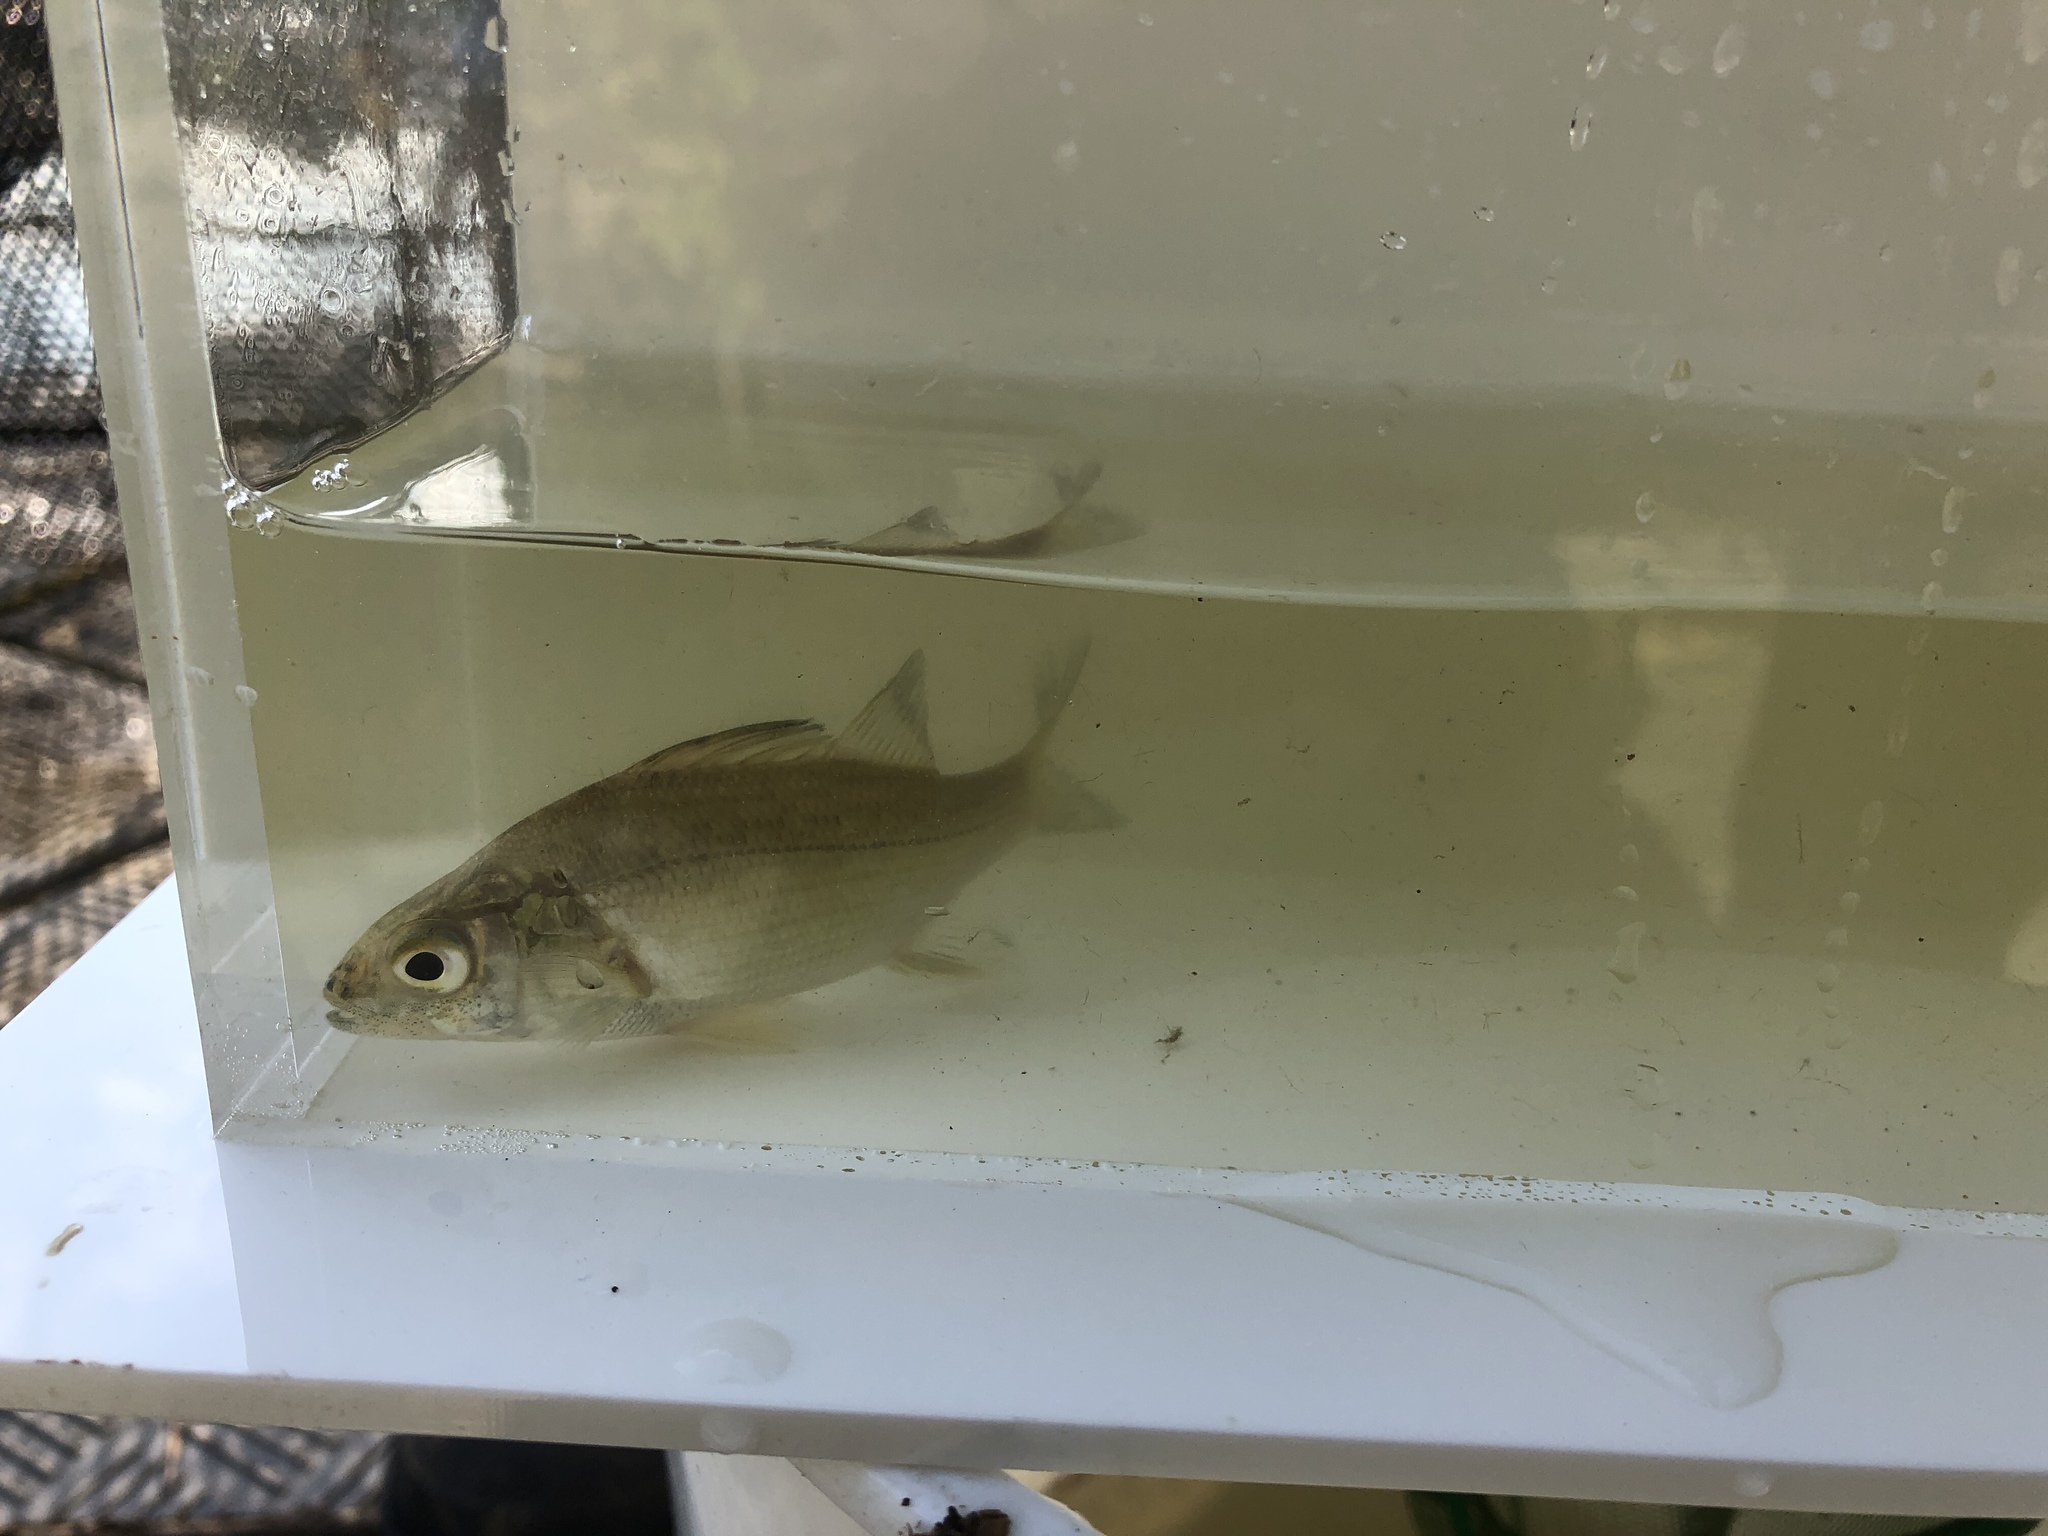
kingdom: Animalia
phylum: Chordata
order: Perciformes
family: Moronidae
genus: Morone
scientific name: Morone americana
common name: White perch
